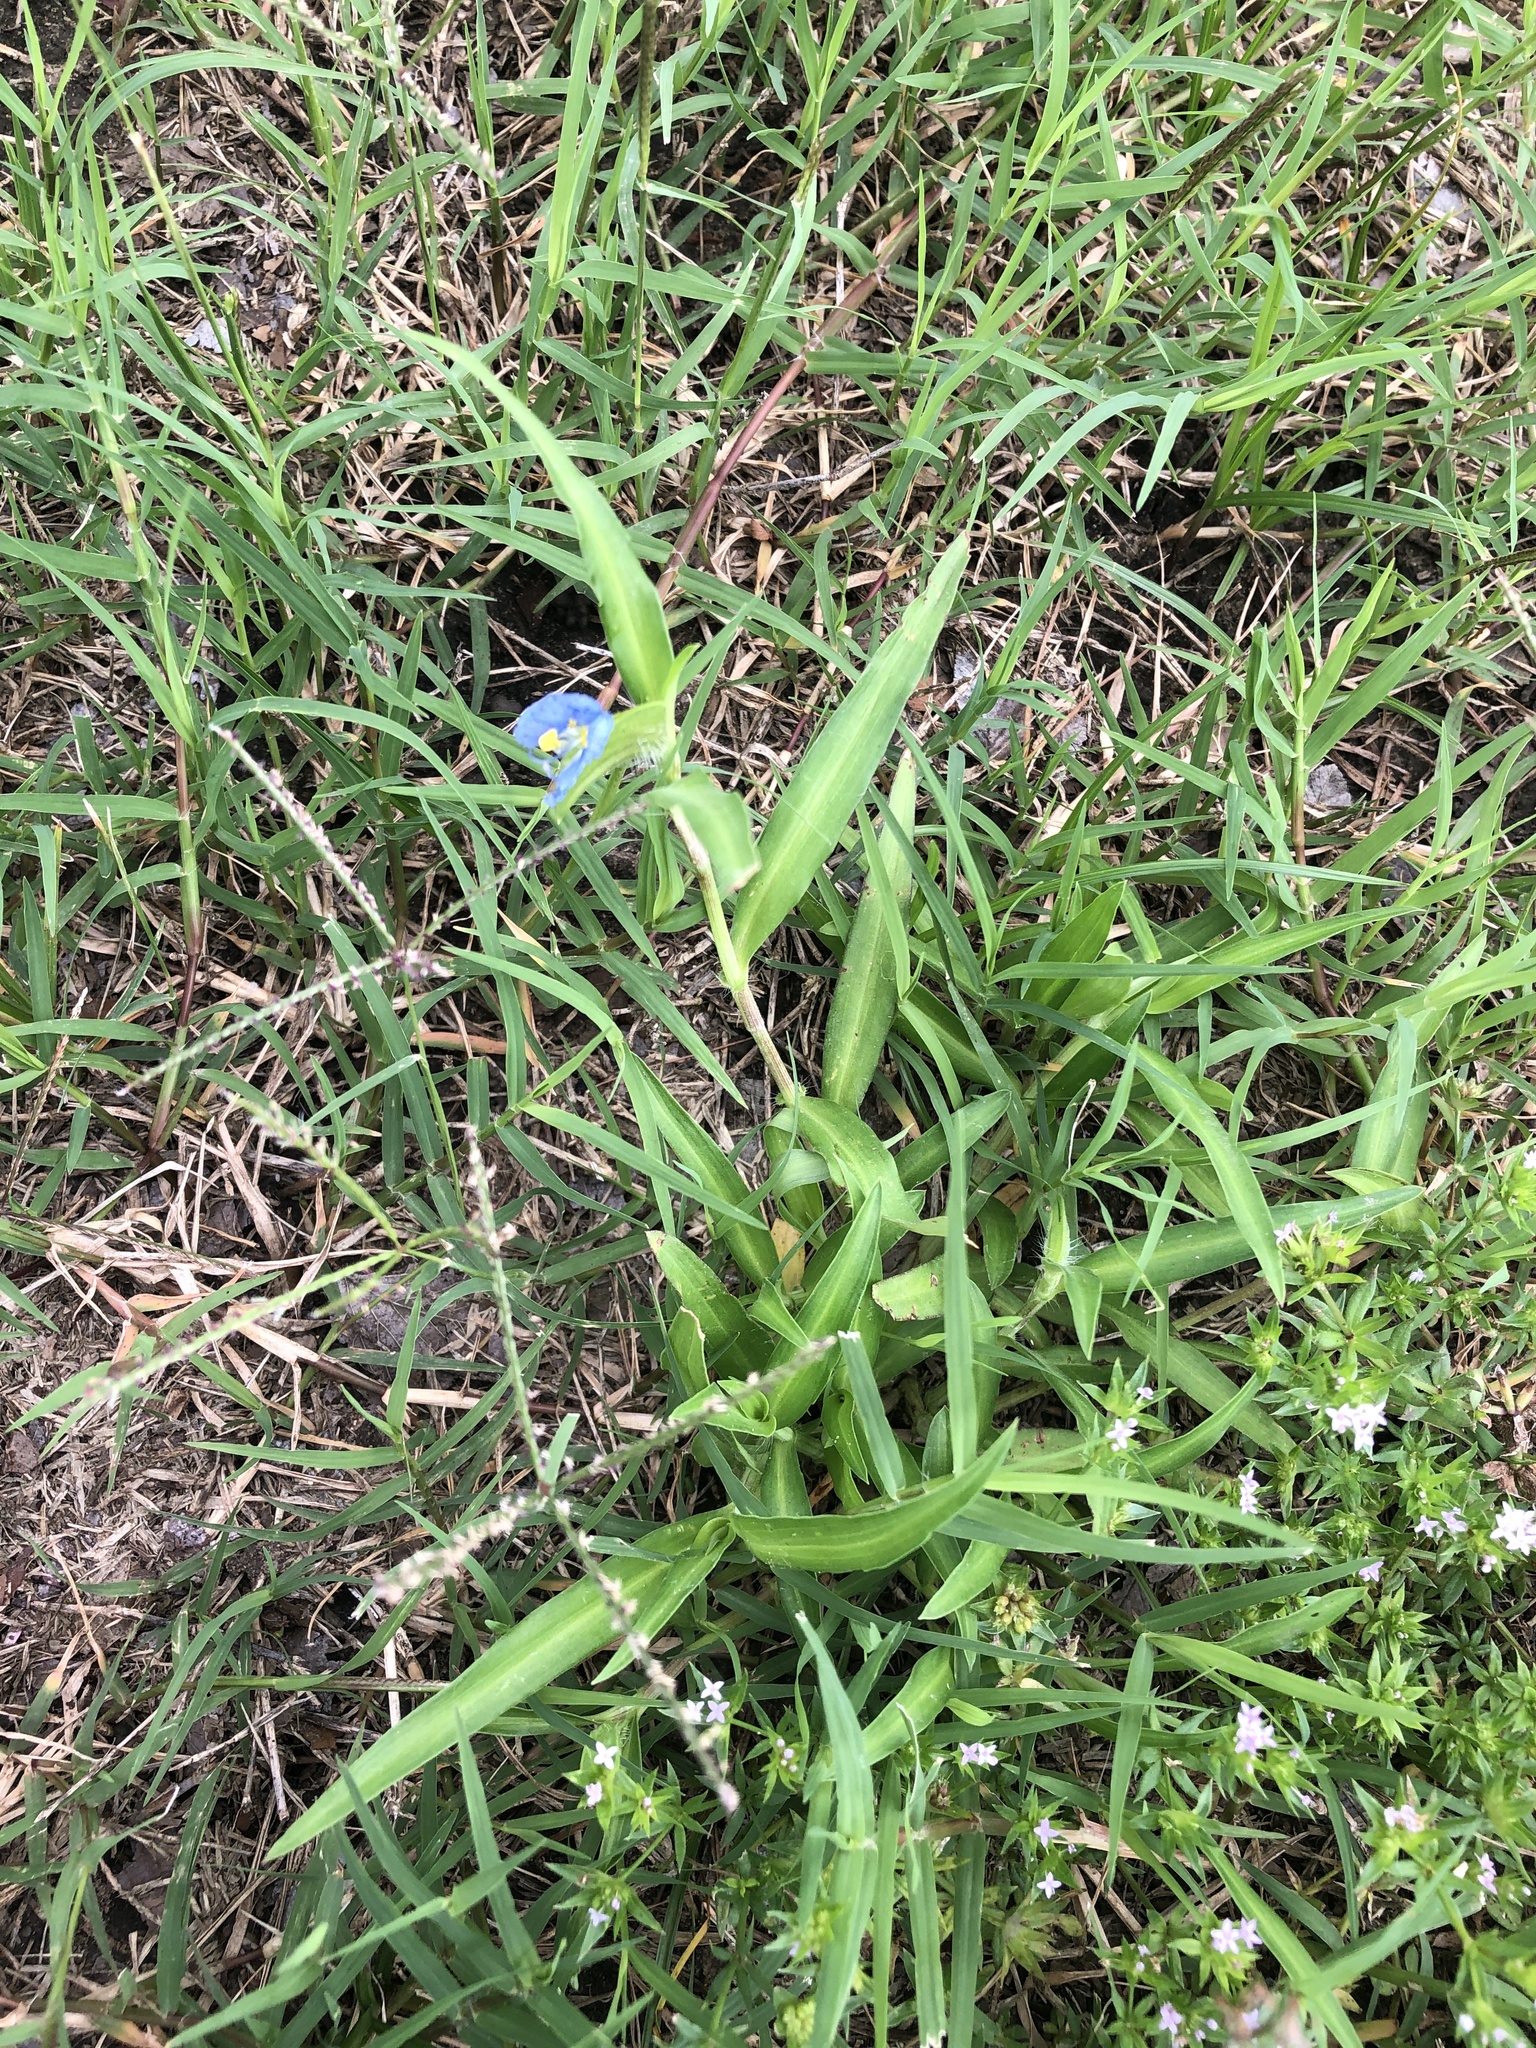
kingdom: Plantae
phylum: Tracheophyta
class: Liliopsida
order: Commelinales
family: Commelinaceae
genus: Commelina
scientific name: Commelina erecta
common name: Blousel blommetjie
